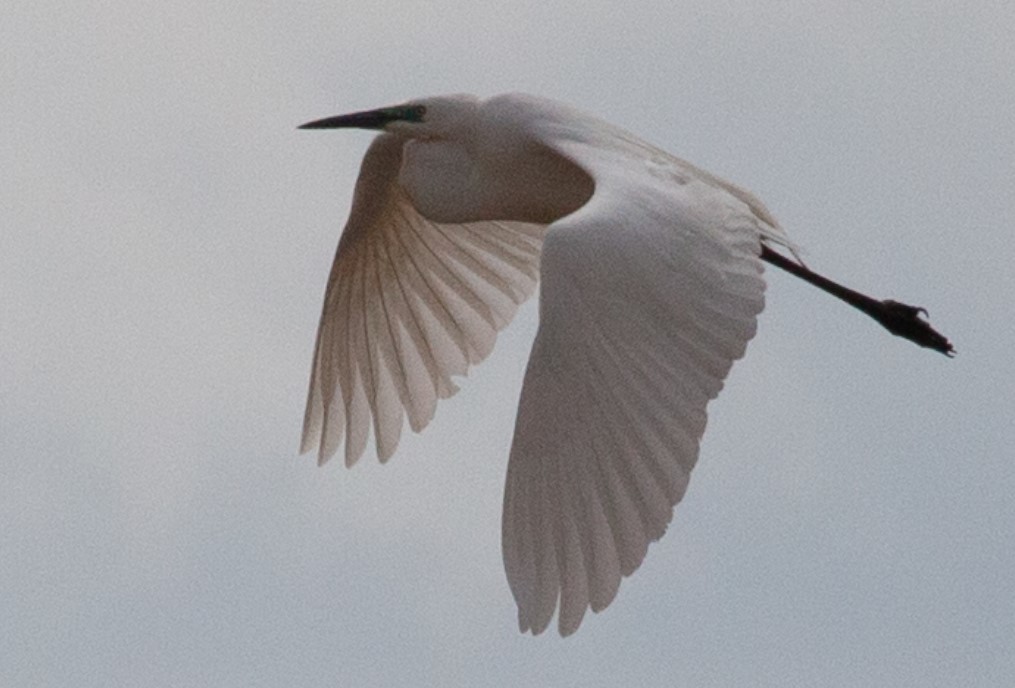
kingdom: Animalia
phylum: Chordata
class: Aves
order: Pelecaniformes
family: Ardeidae
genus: Ardea
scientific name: Ardea alba
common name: Great egret
